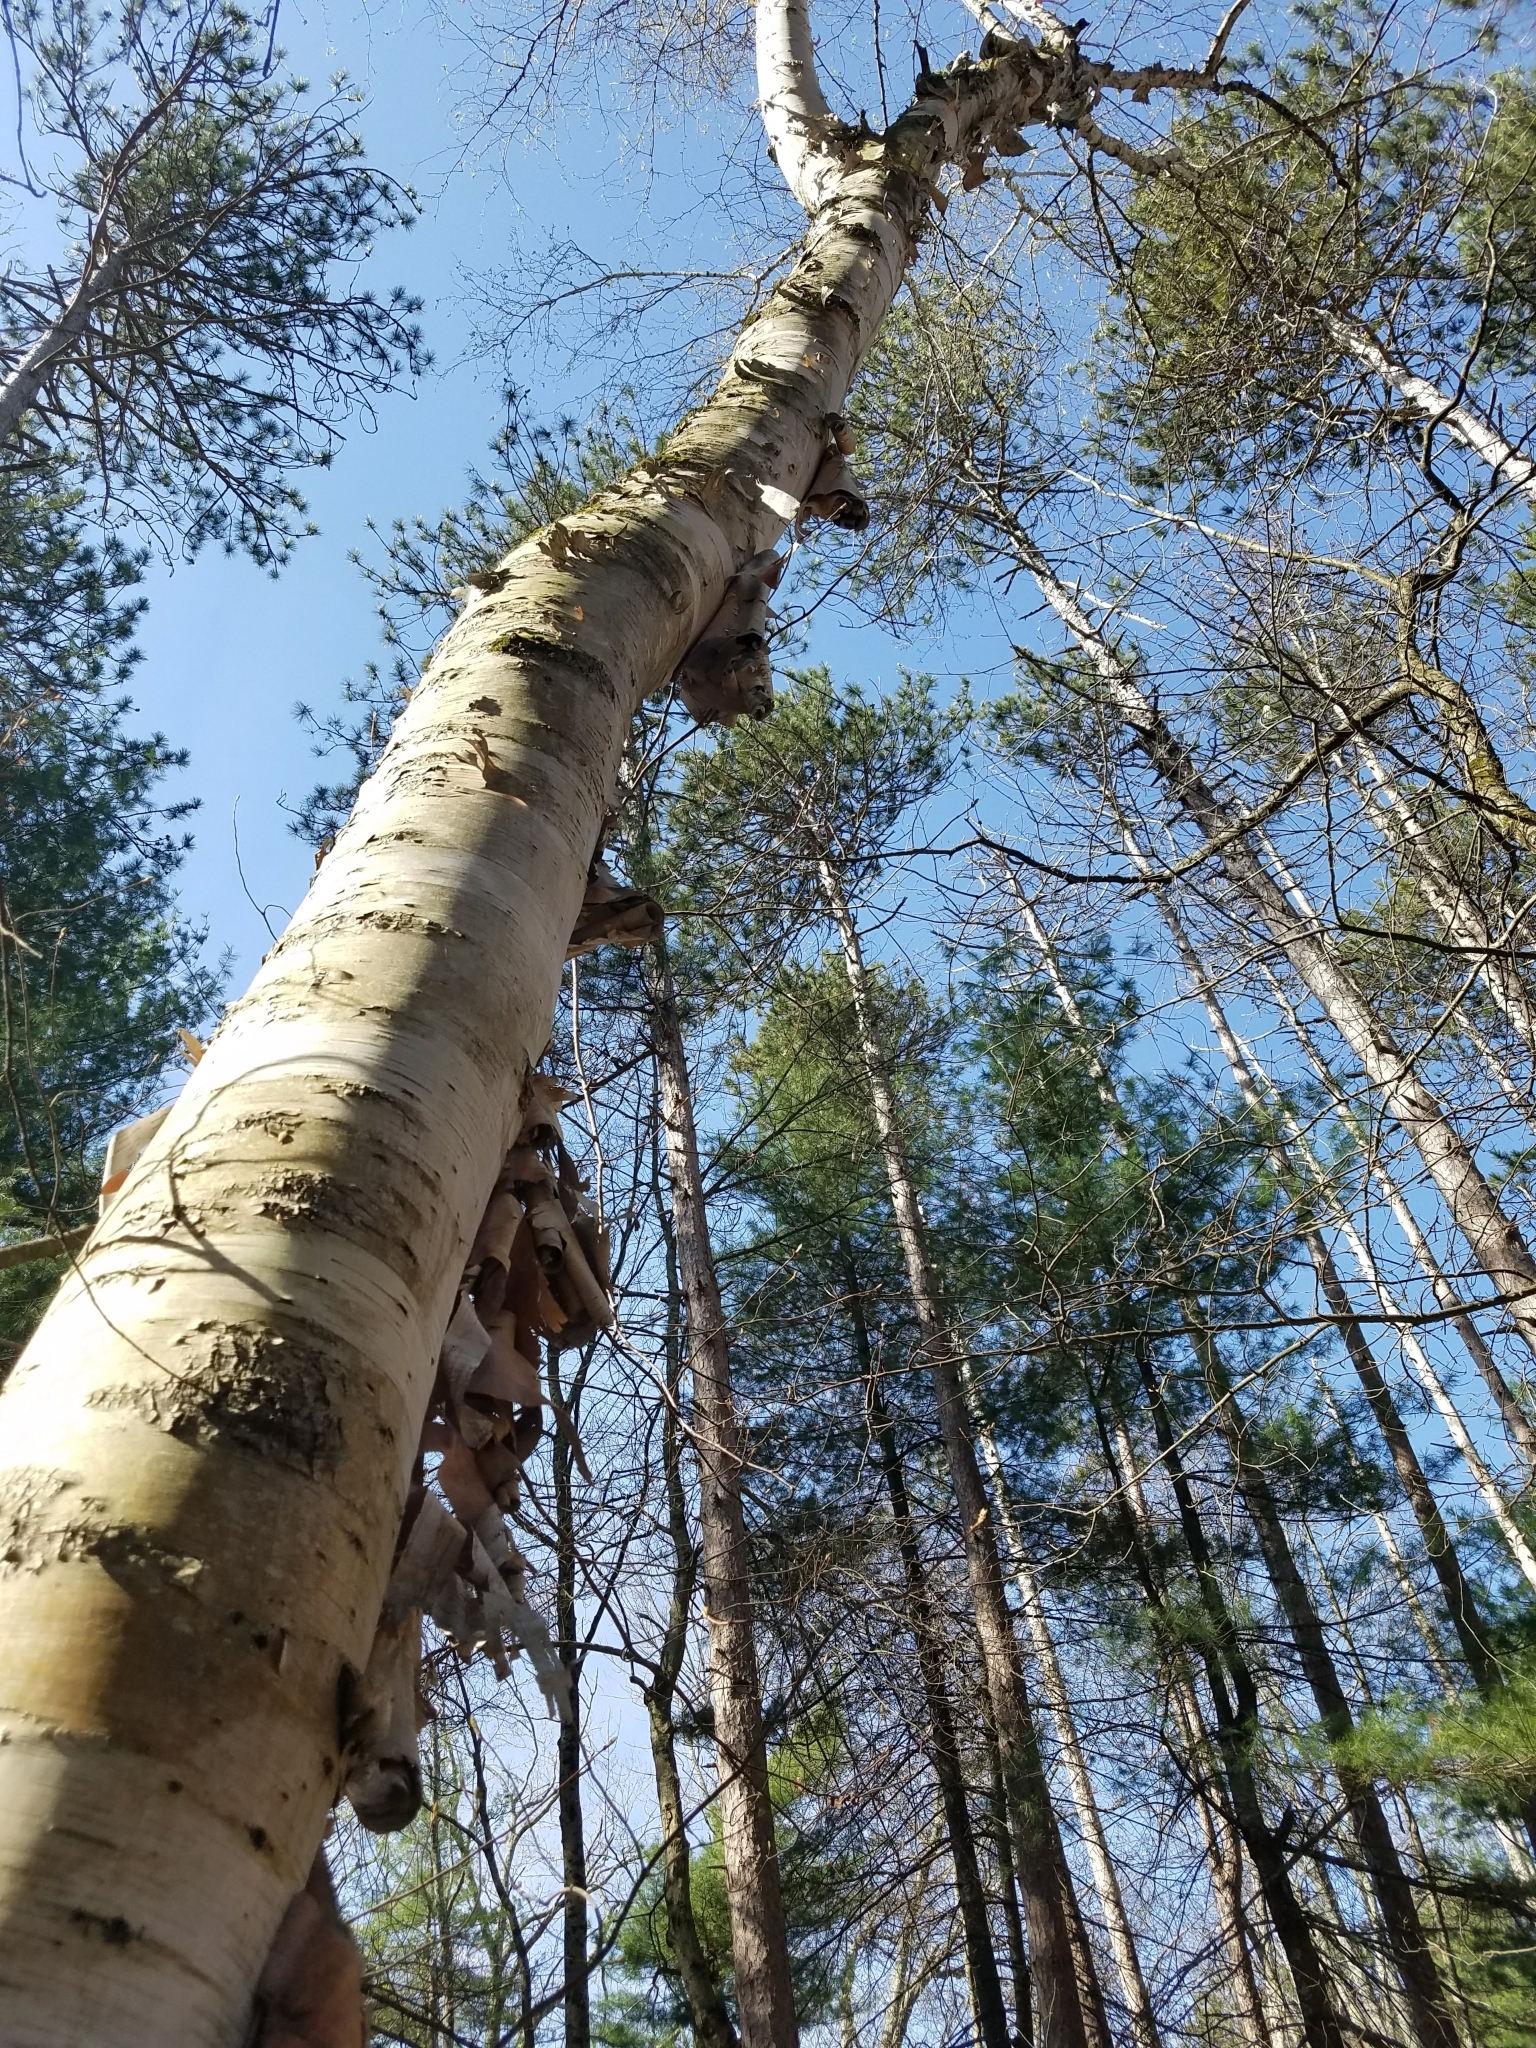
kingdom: Plantae
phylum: Tracheophyta
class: Magnoliopsida
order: Fagales
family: Betulaceae
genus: Betula
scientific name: Betula papyrifera
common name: Paper birch
